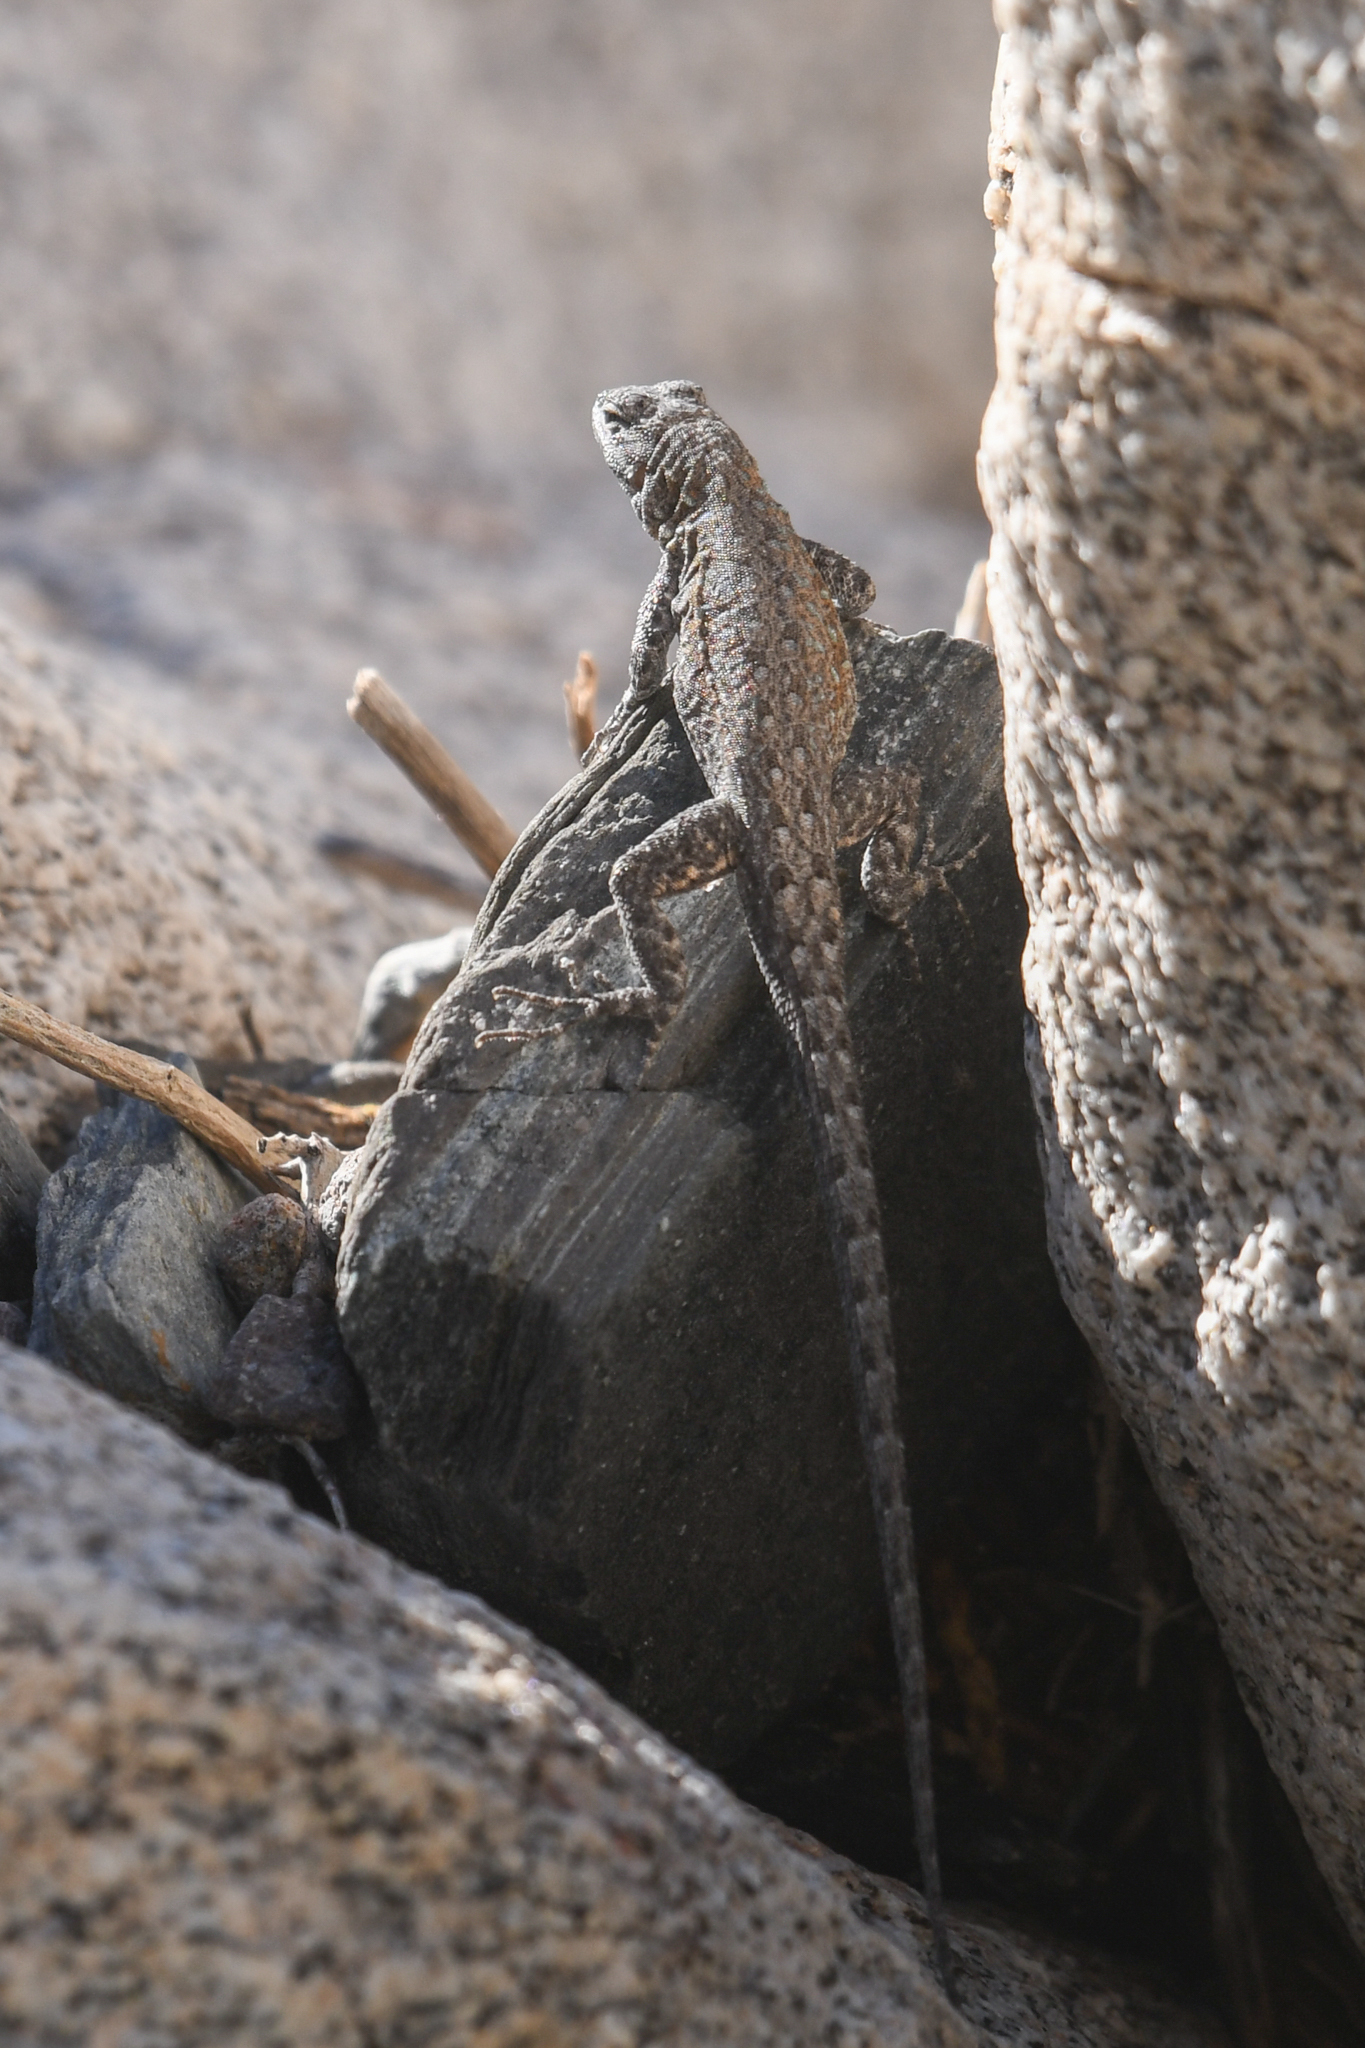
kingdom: Animalia
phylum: Chordata
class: Squamata
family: Phrynosomatidae
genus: Urosaurus
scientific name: Urosaurus nigricauda
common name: Baja california brush lizard
